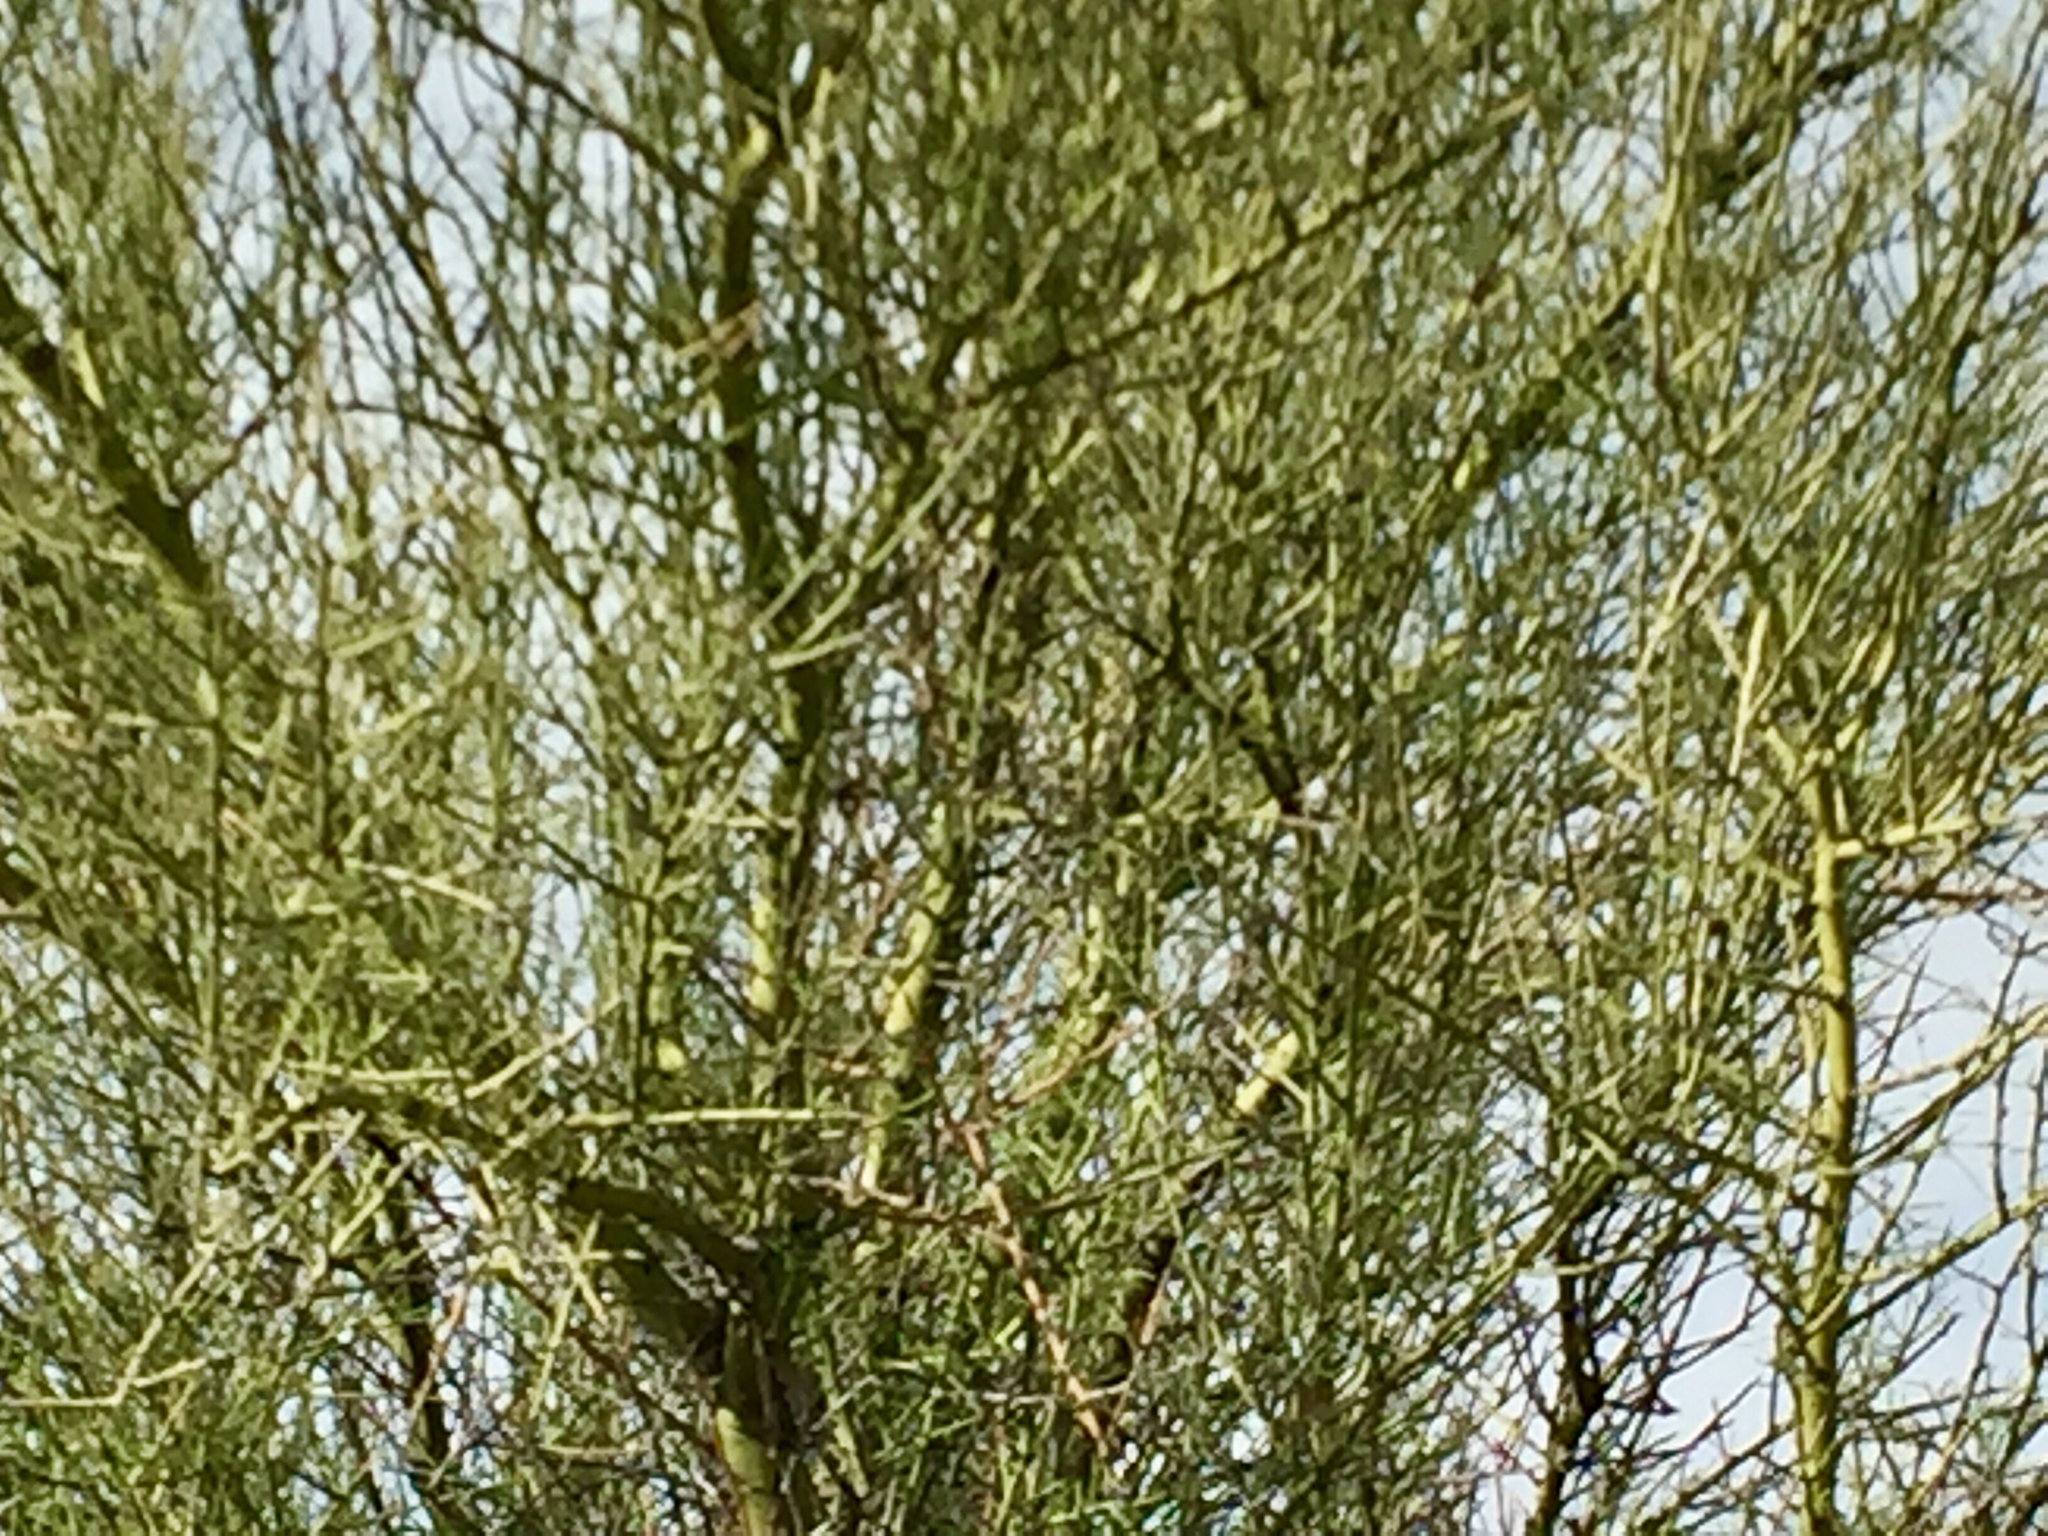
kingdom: Plantae
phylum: Tracheophyta
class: Magnoliopsida
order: Fabales
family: Fabaceae
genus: Parkinsonia
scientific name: Parkinsonia microphylla
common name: Yellow paloverde
